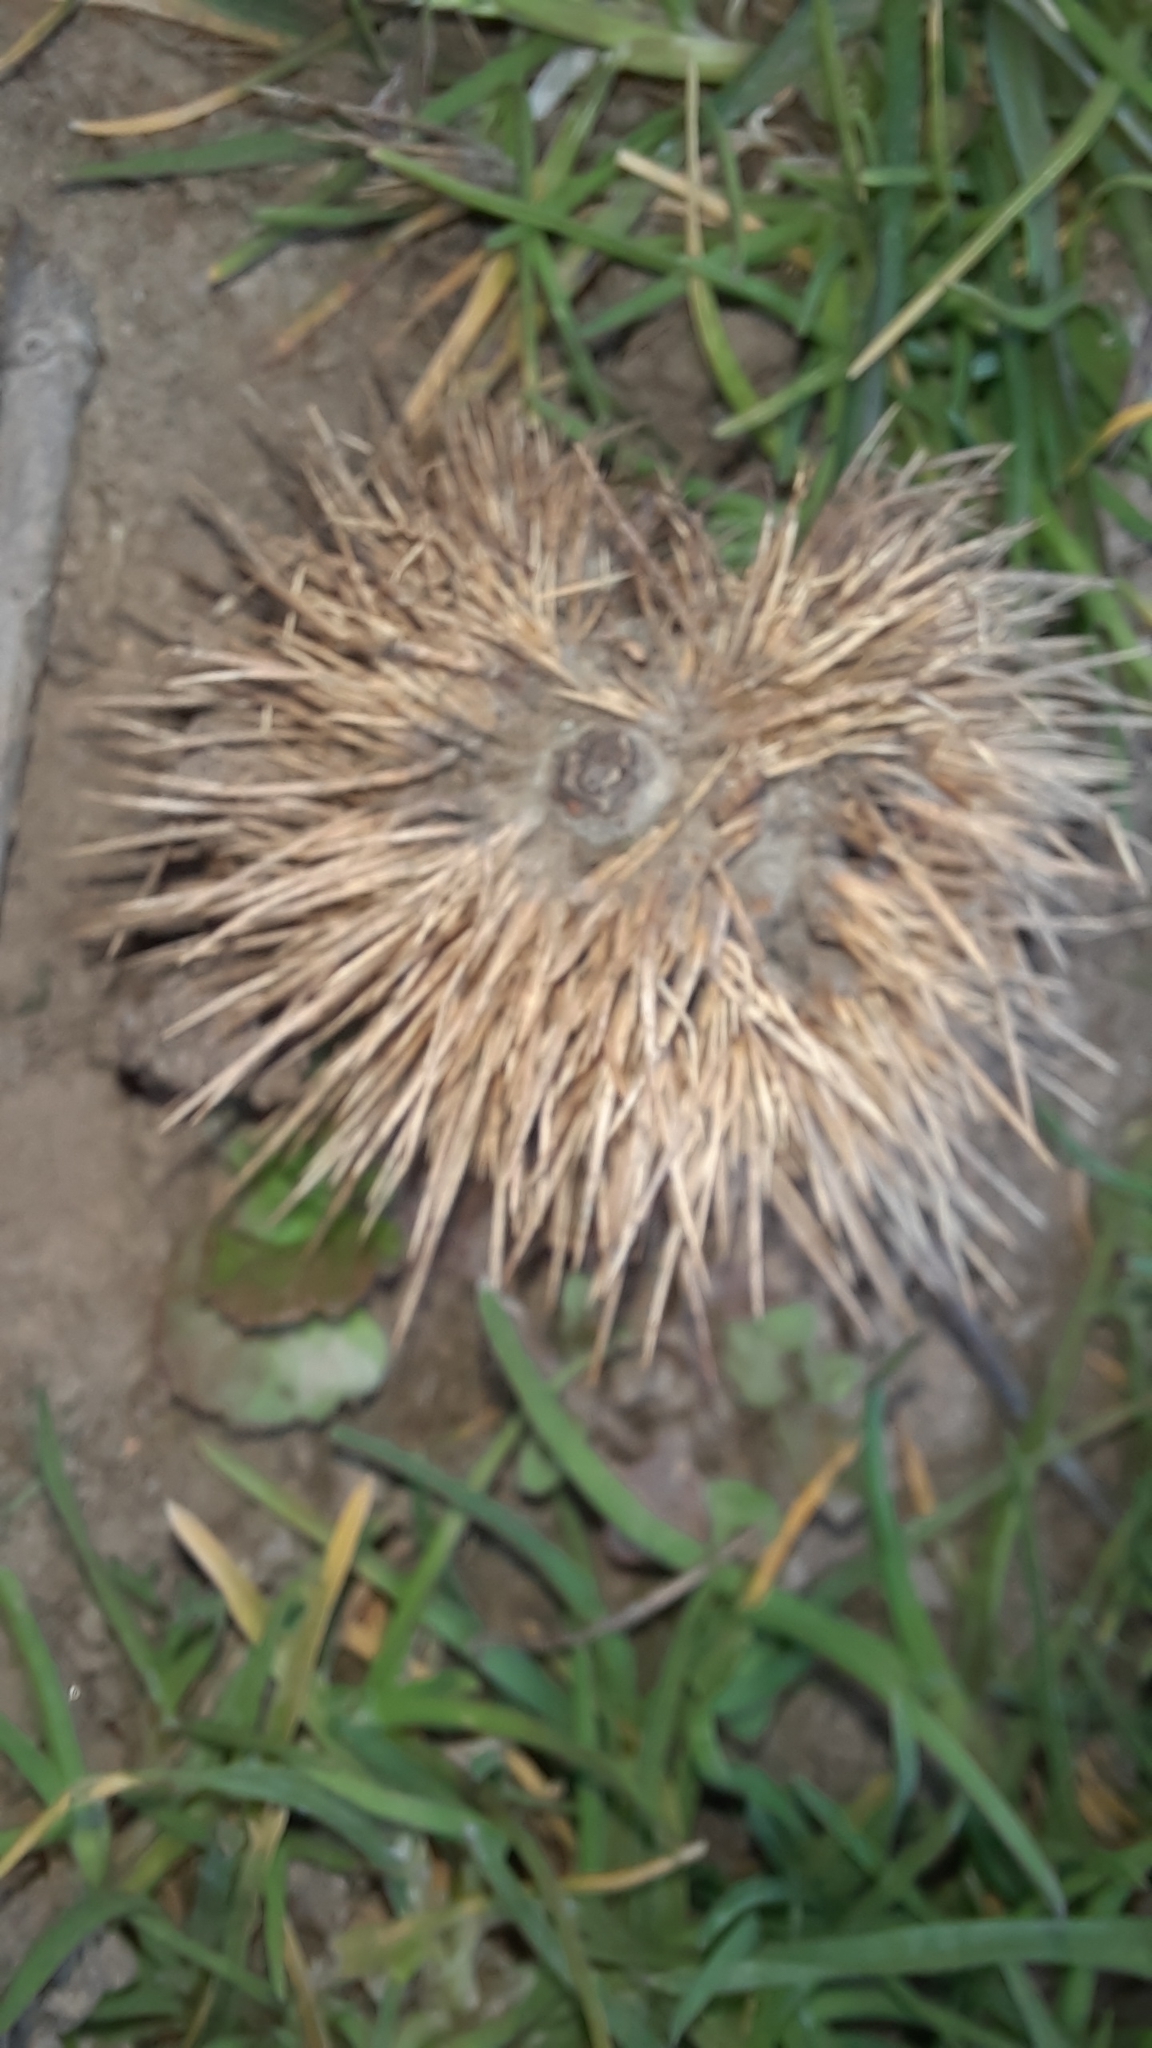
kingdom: Plantae
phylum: Tracheophyta
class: Magnoliopsida
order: Fagales
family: Fagaceae
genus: Castanea
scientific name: Castanea sativa
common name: Sweet chestnut
